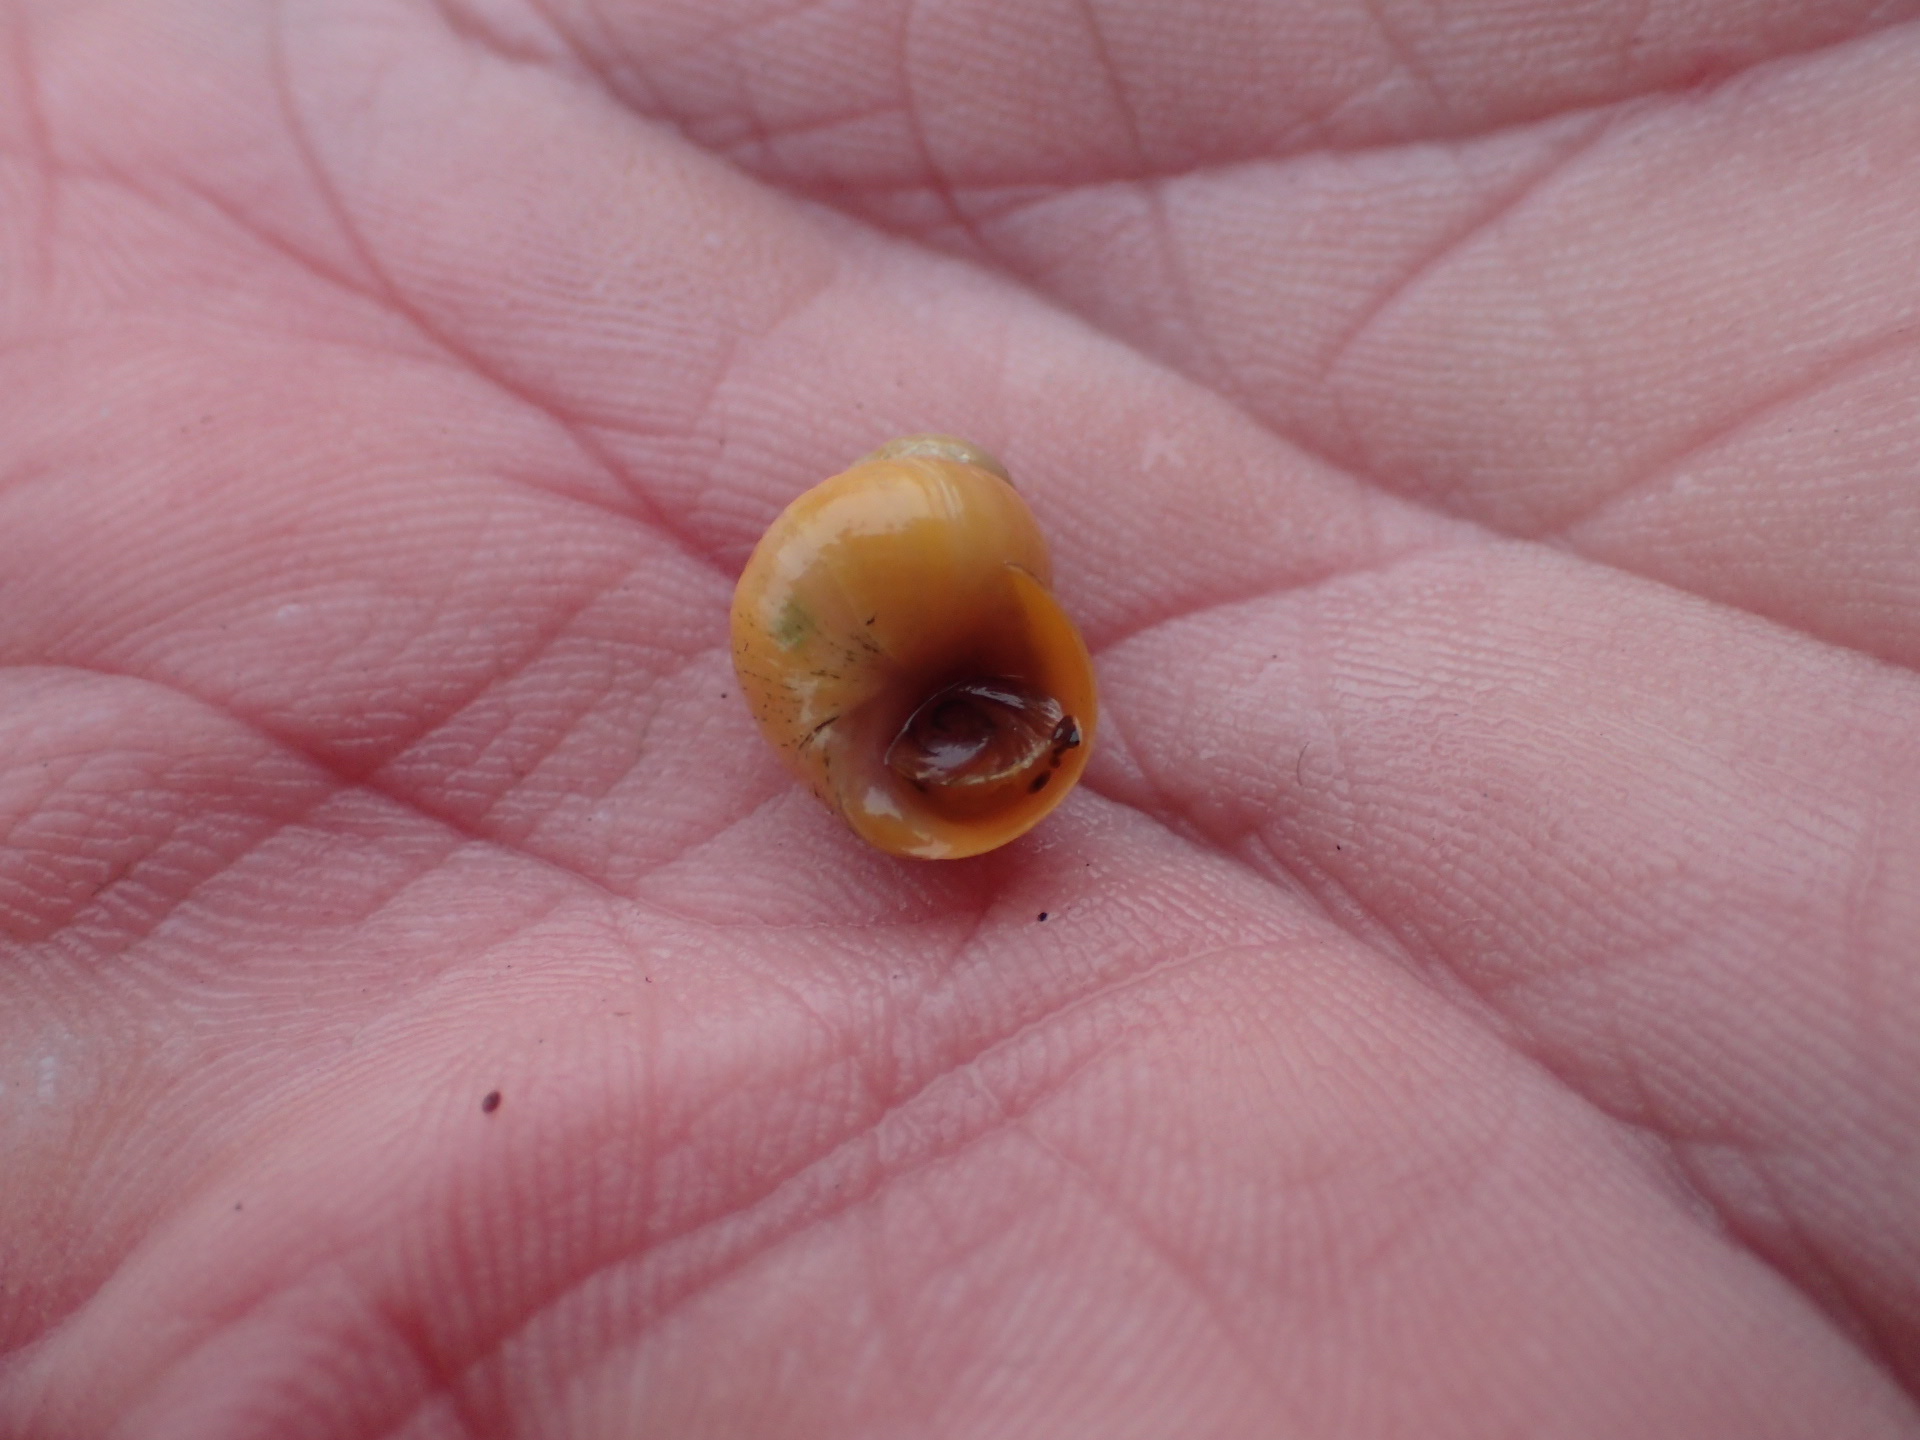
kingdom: Animalia
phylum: Mollusca
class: Gastropoda
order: Littorinimorpha
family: Littorinidae
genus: Littorina
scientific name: Littorina saxatilis
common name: Black-lined periwinkle
